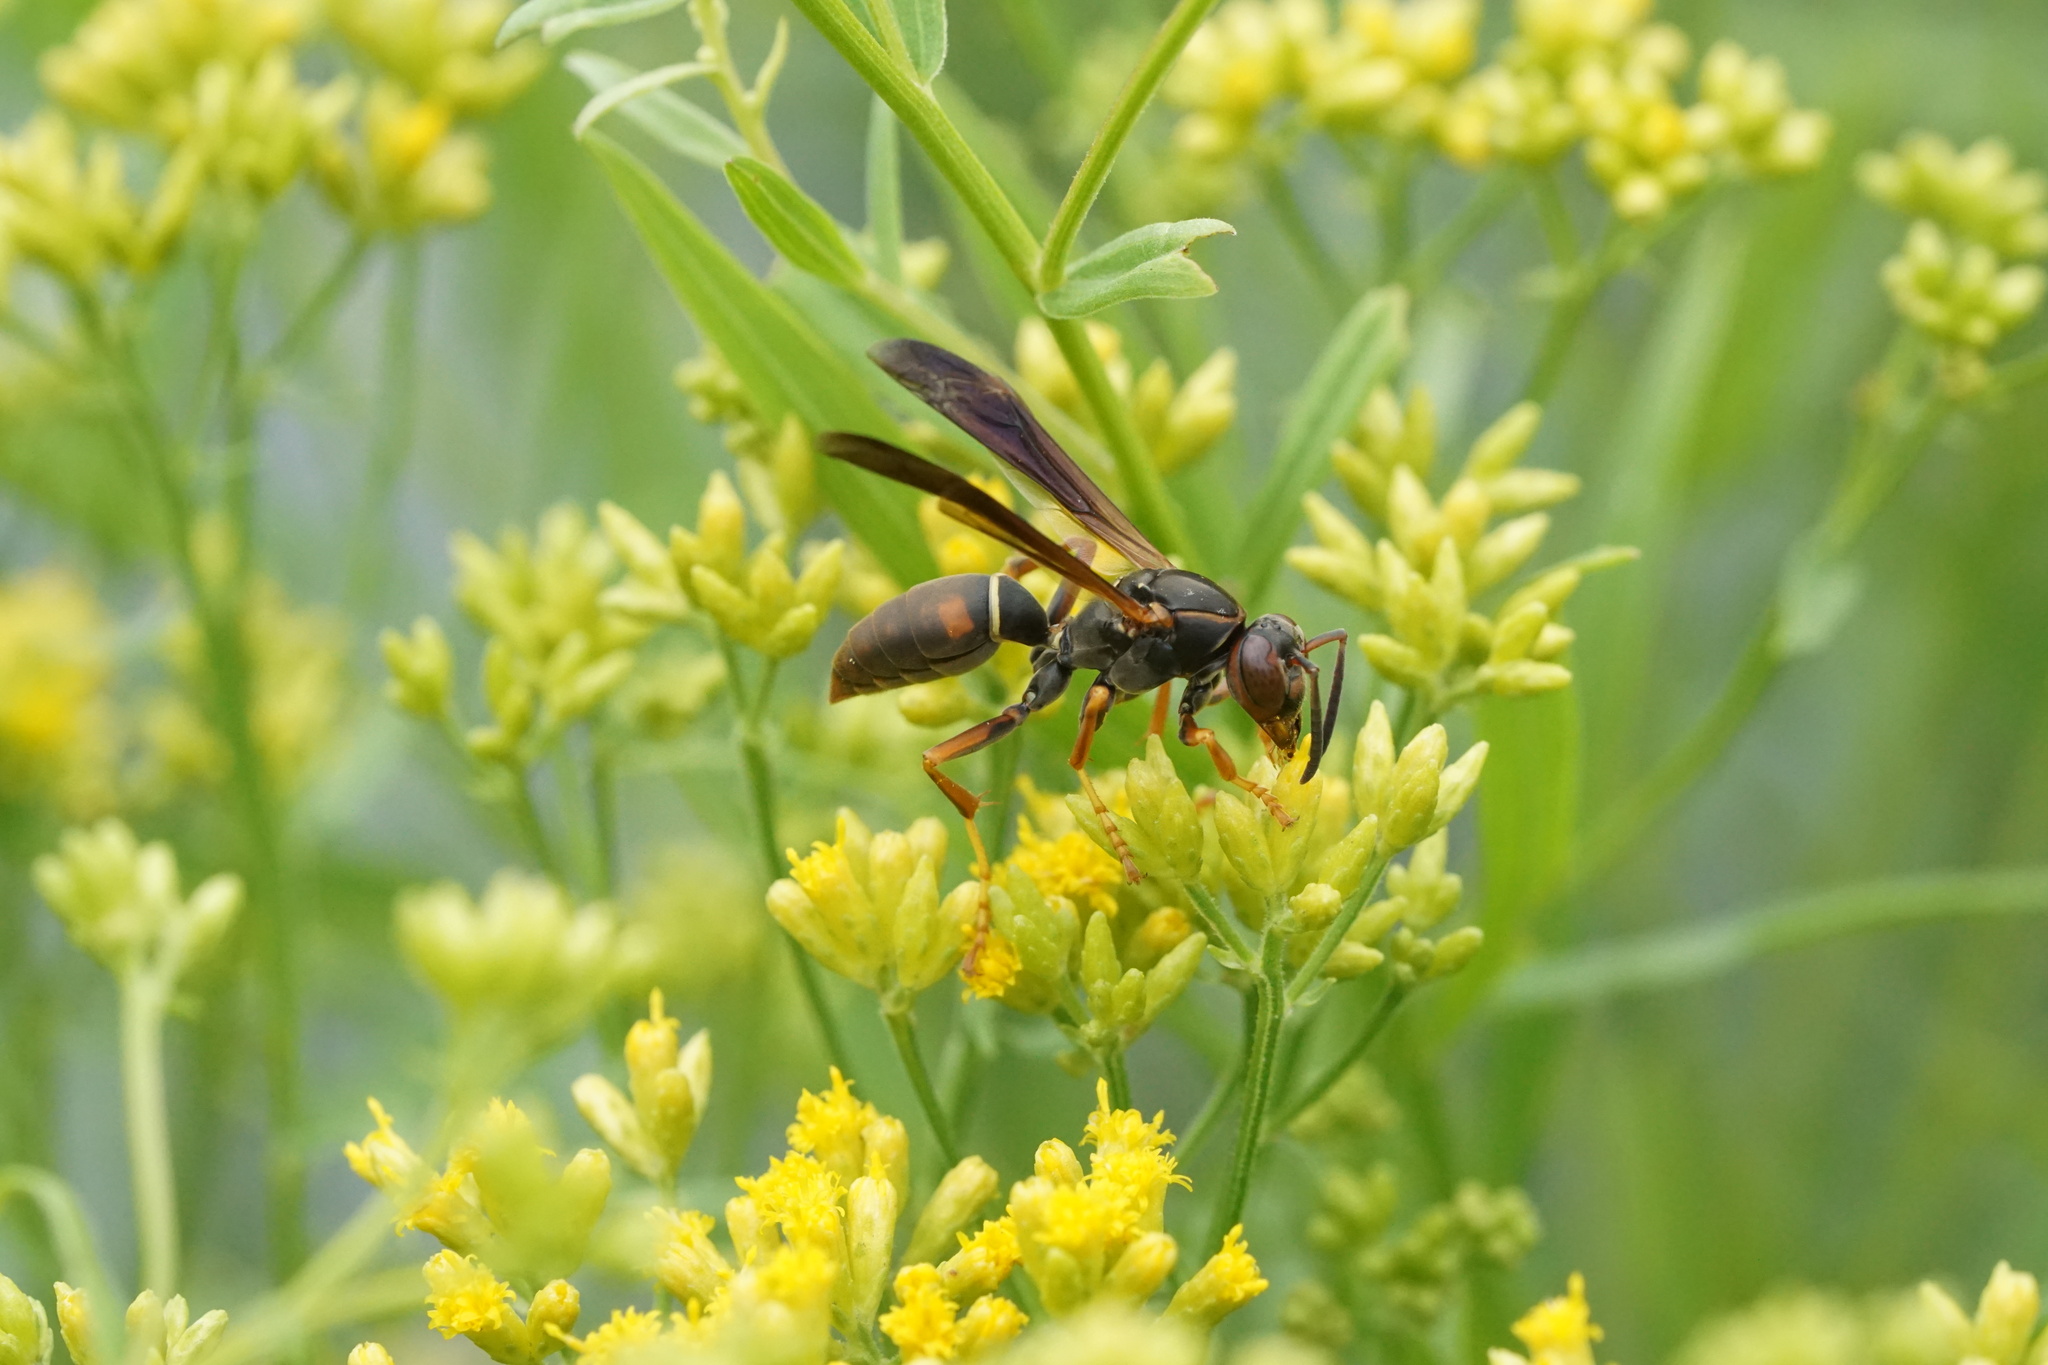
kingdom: Animalia
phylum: Arthropoda
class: Insecta
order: Hymenoptera
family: Eumenidae
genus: Polistes
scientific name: Polistes fuscatus
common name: Dark paper wasp
